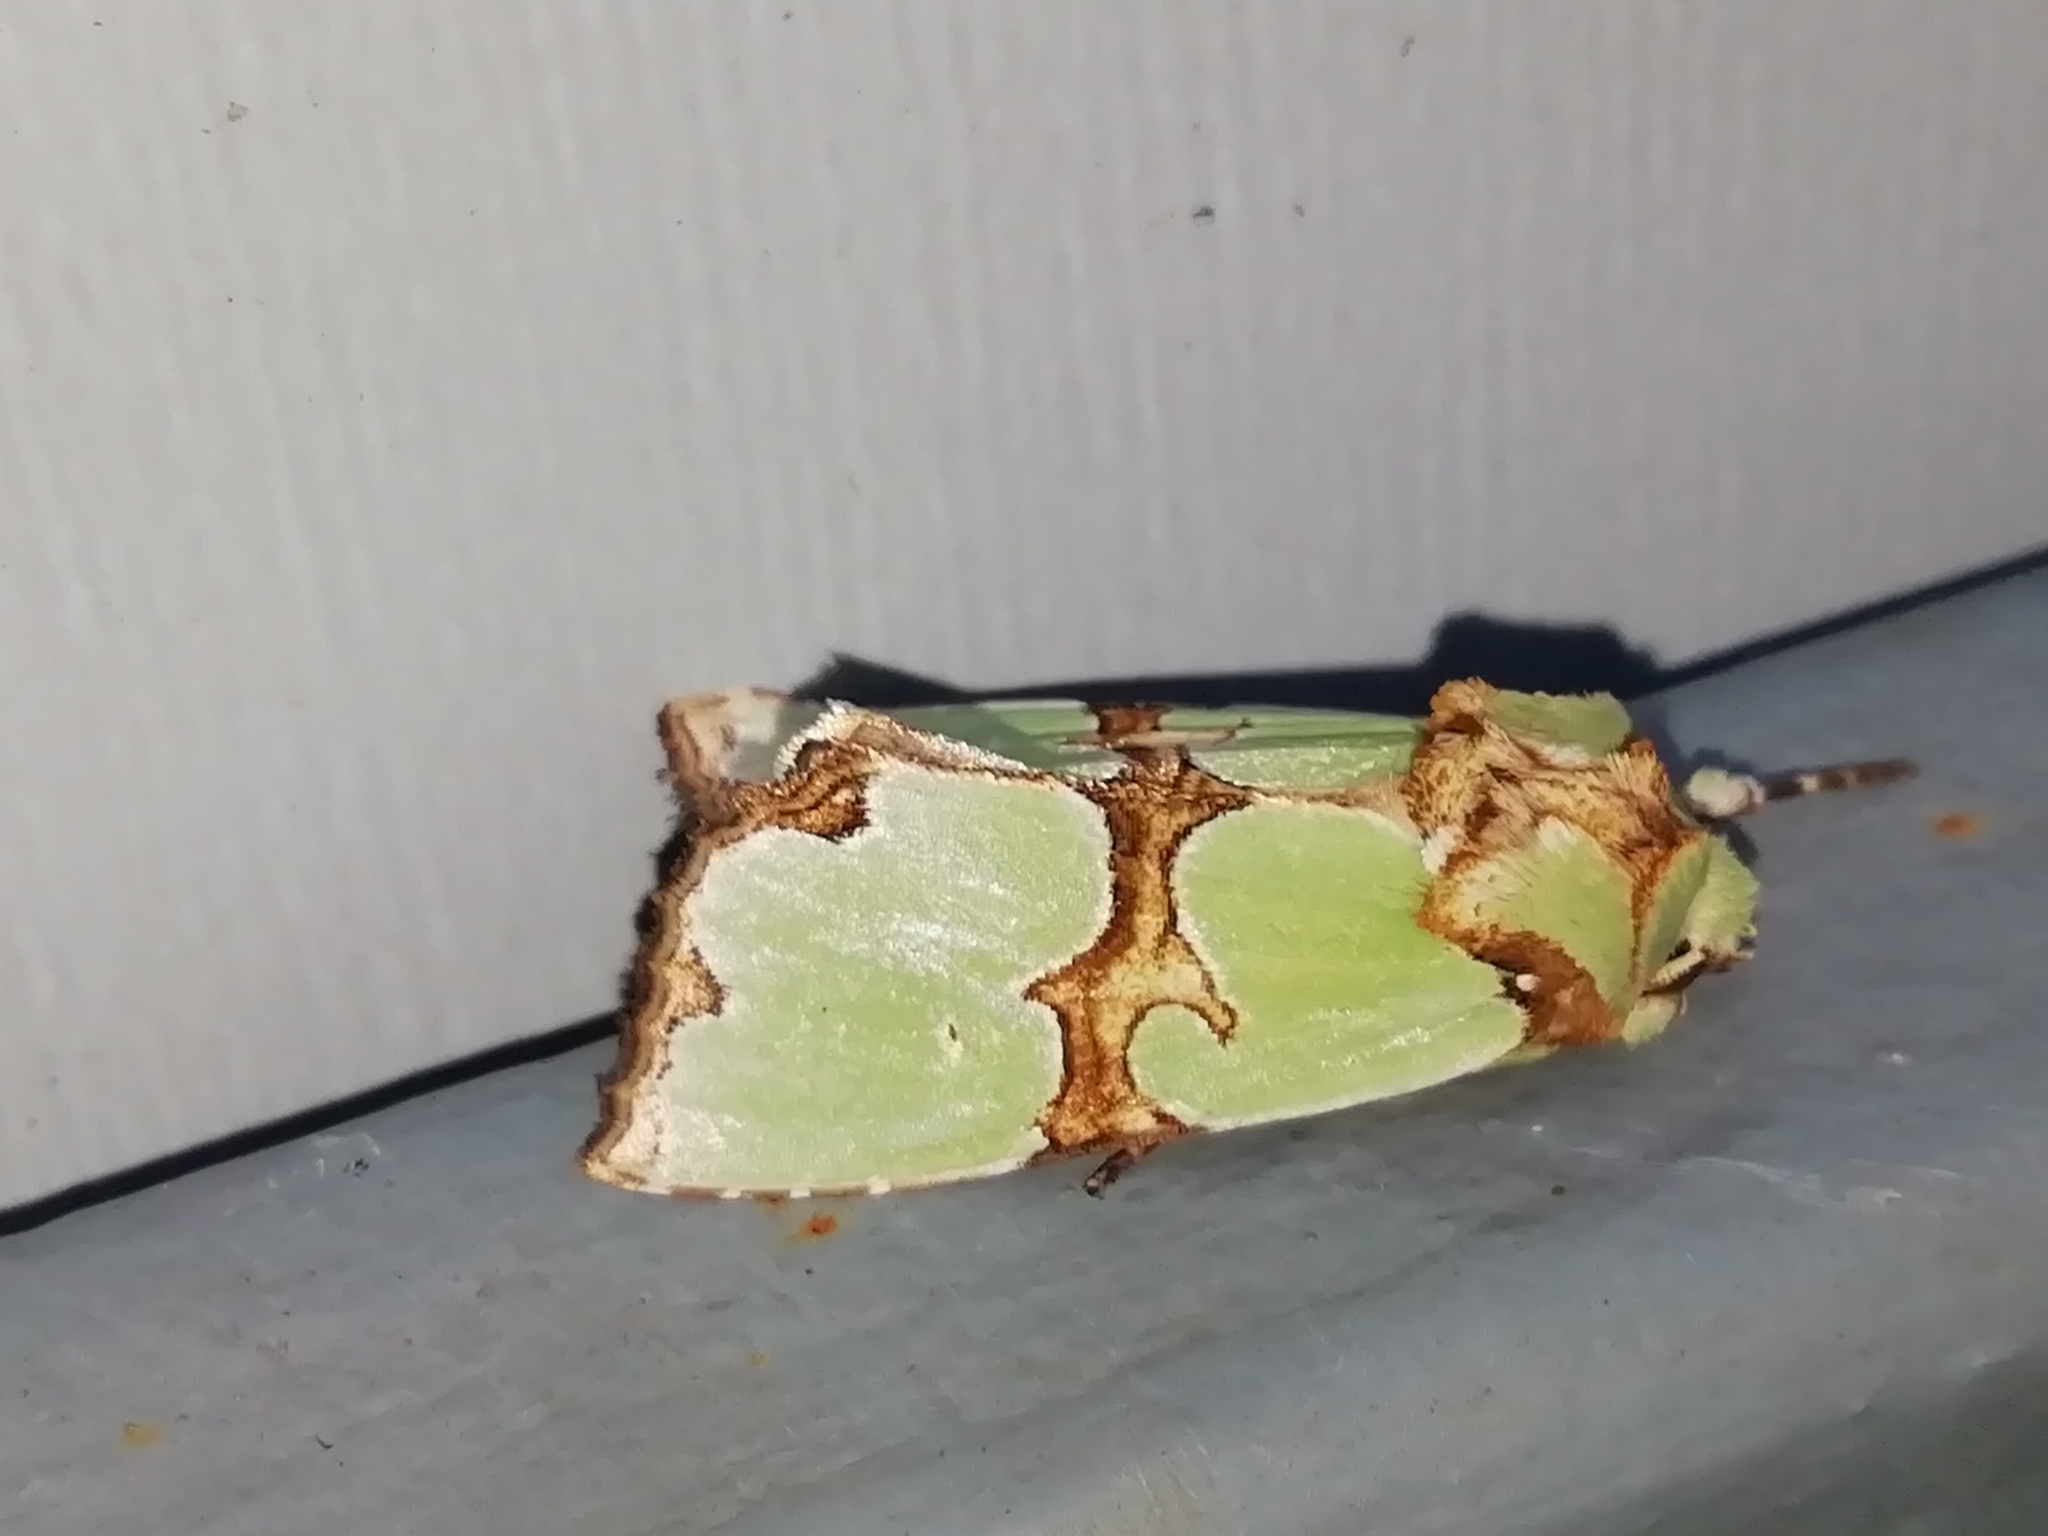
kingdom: Animalia
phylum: Arthropoda
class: Insecta
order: Lepidoptera
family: Noctuidae
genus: Staurophora
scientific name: Staurophora celsia
